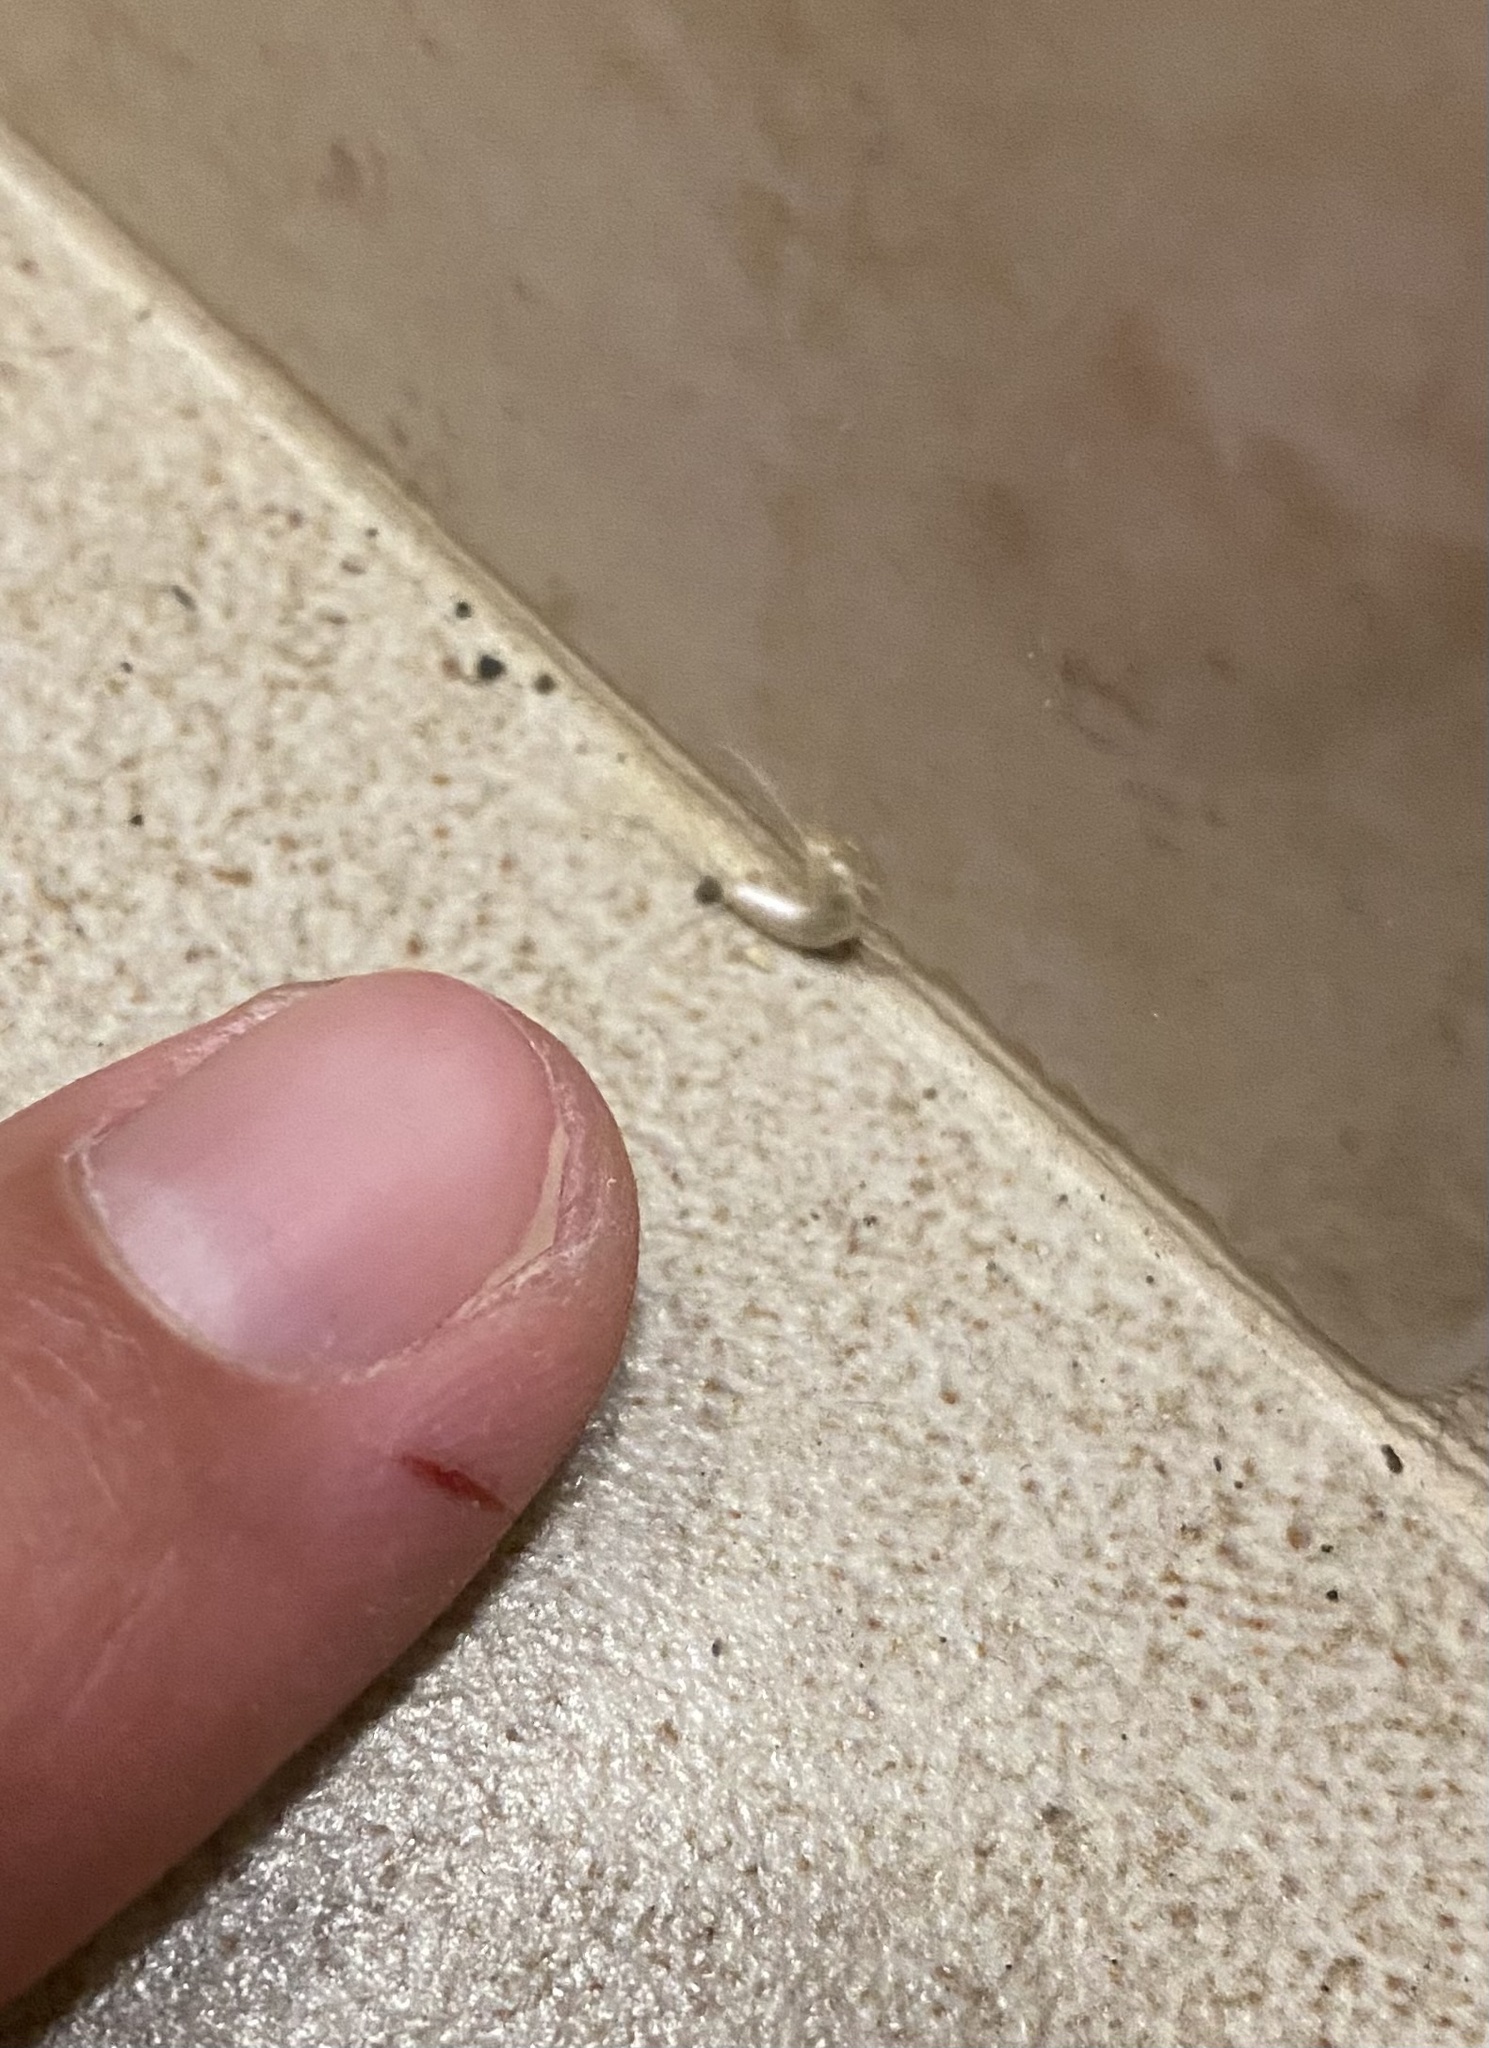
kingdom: Animalia
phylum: Arthropoda
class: Insecta
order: Zygentoma
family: Lepismatidae
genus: Ctenolepisma
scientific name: Ctenolepisma
